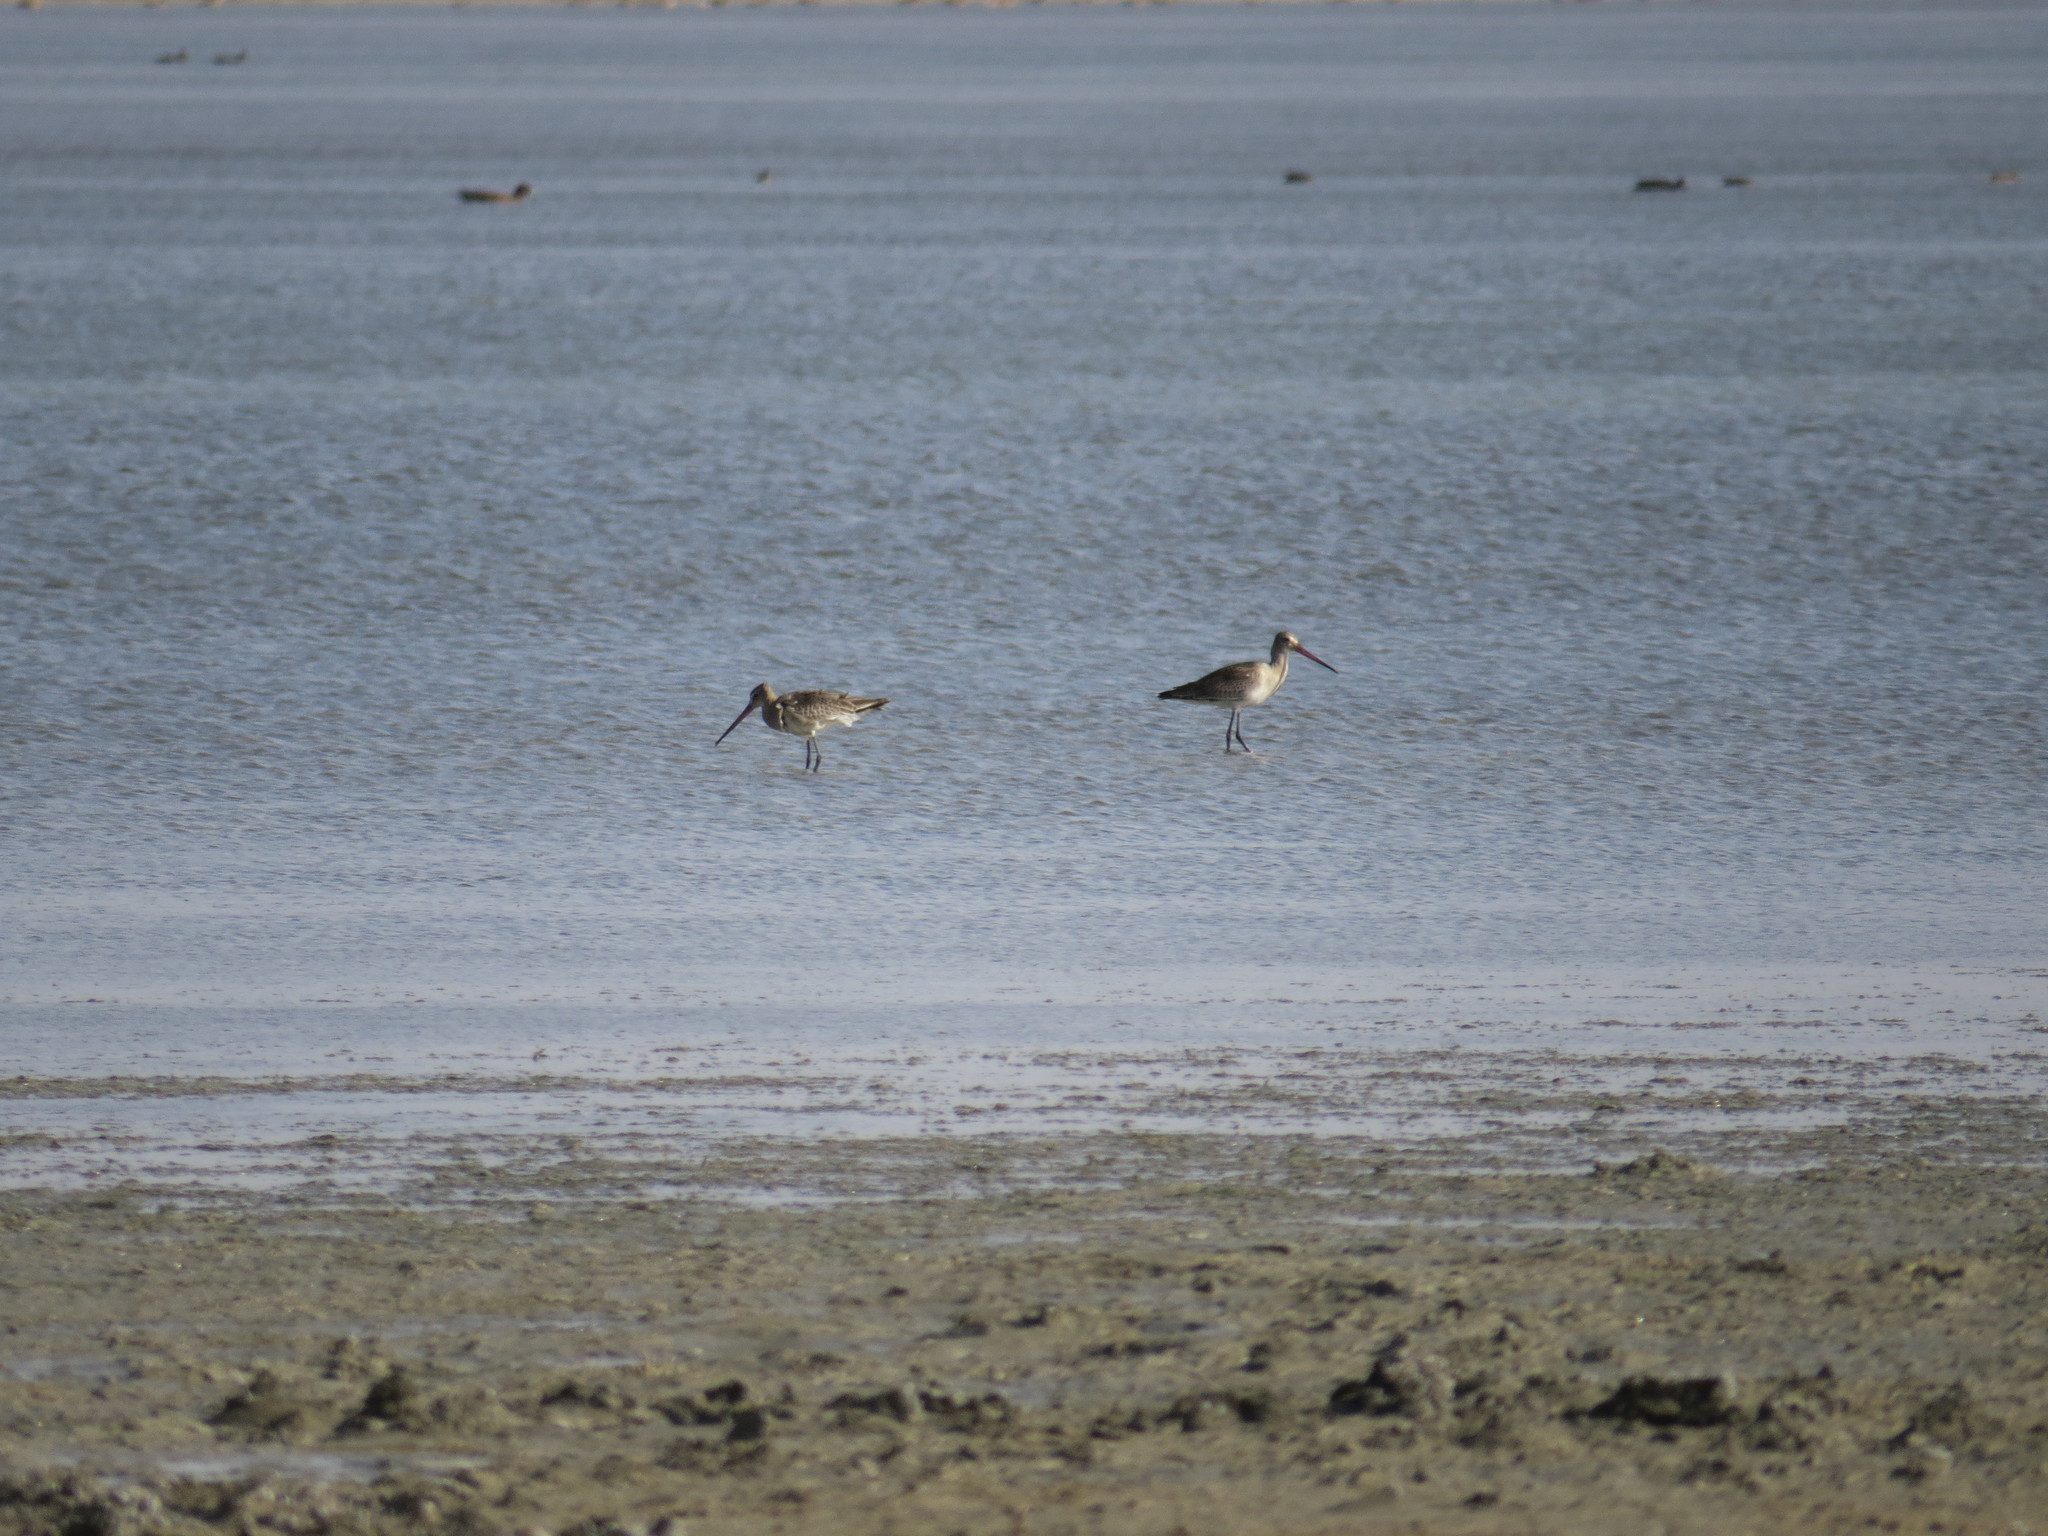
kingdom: Animalia
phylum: Chordata
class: Aves
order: Charadriiformes
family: Scolopacidae
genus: Limosa
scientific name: Limosa limosa
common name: Black-tailed godwit
